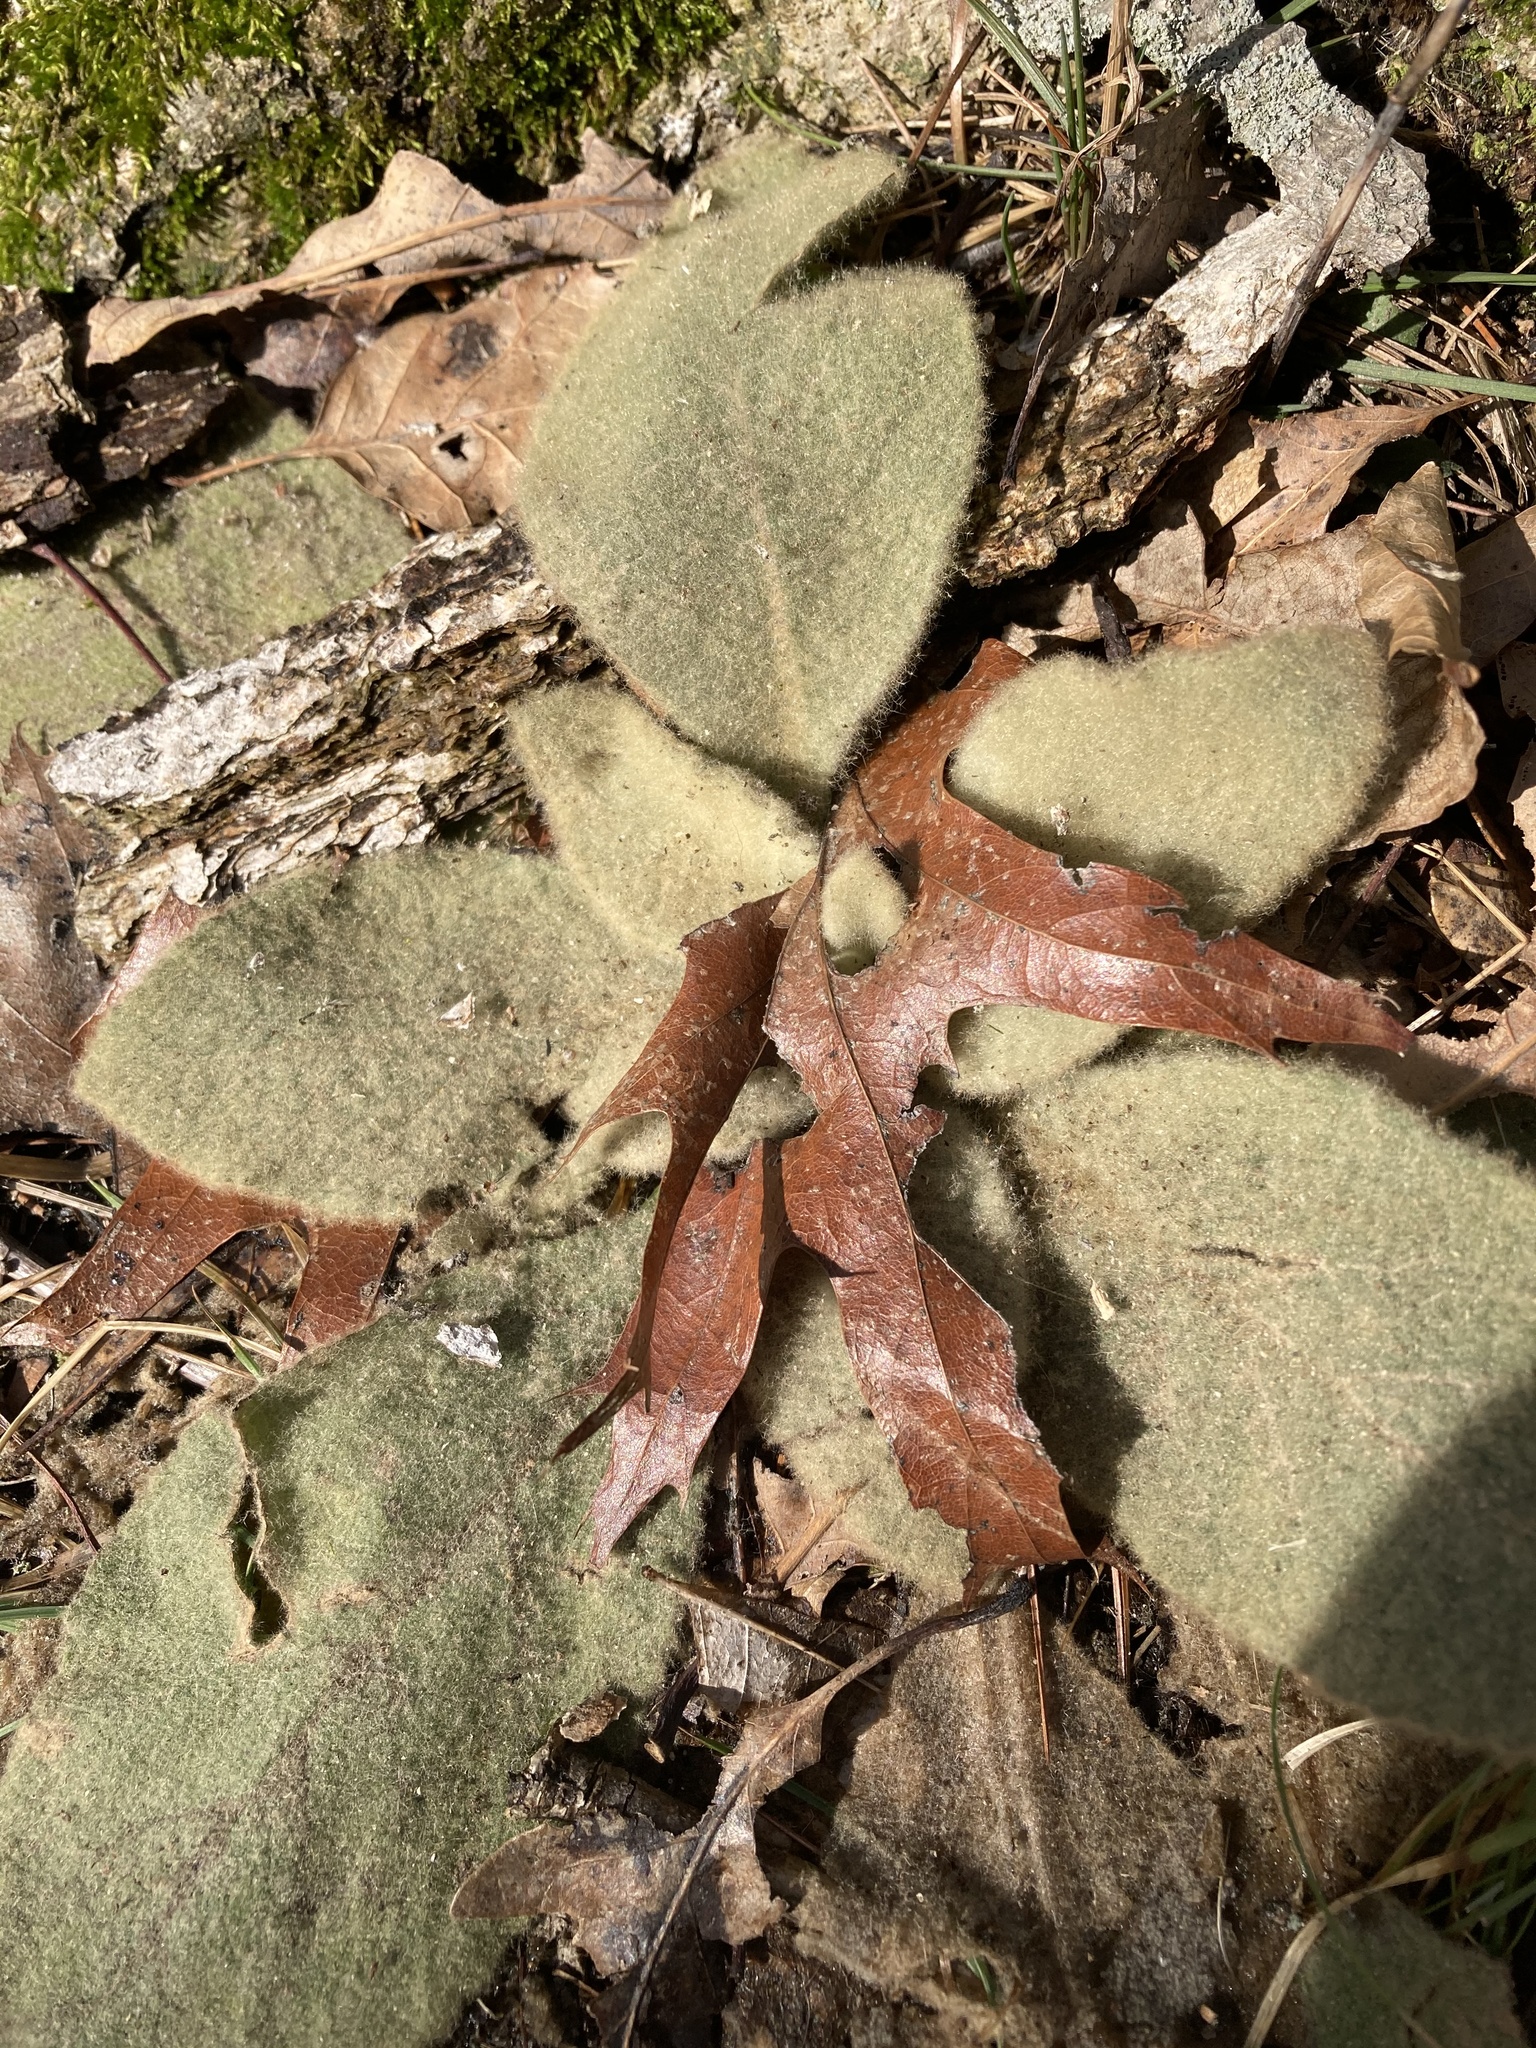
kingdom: Plantae
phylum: Tracheophyta
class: Magnoliopsida
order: Lamiales
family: Scrophulariaceae
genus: Verbascum
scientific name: Verbascum thapsus
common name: Common mullein
